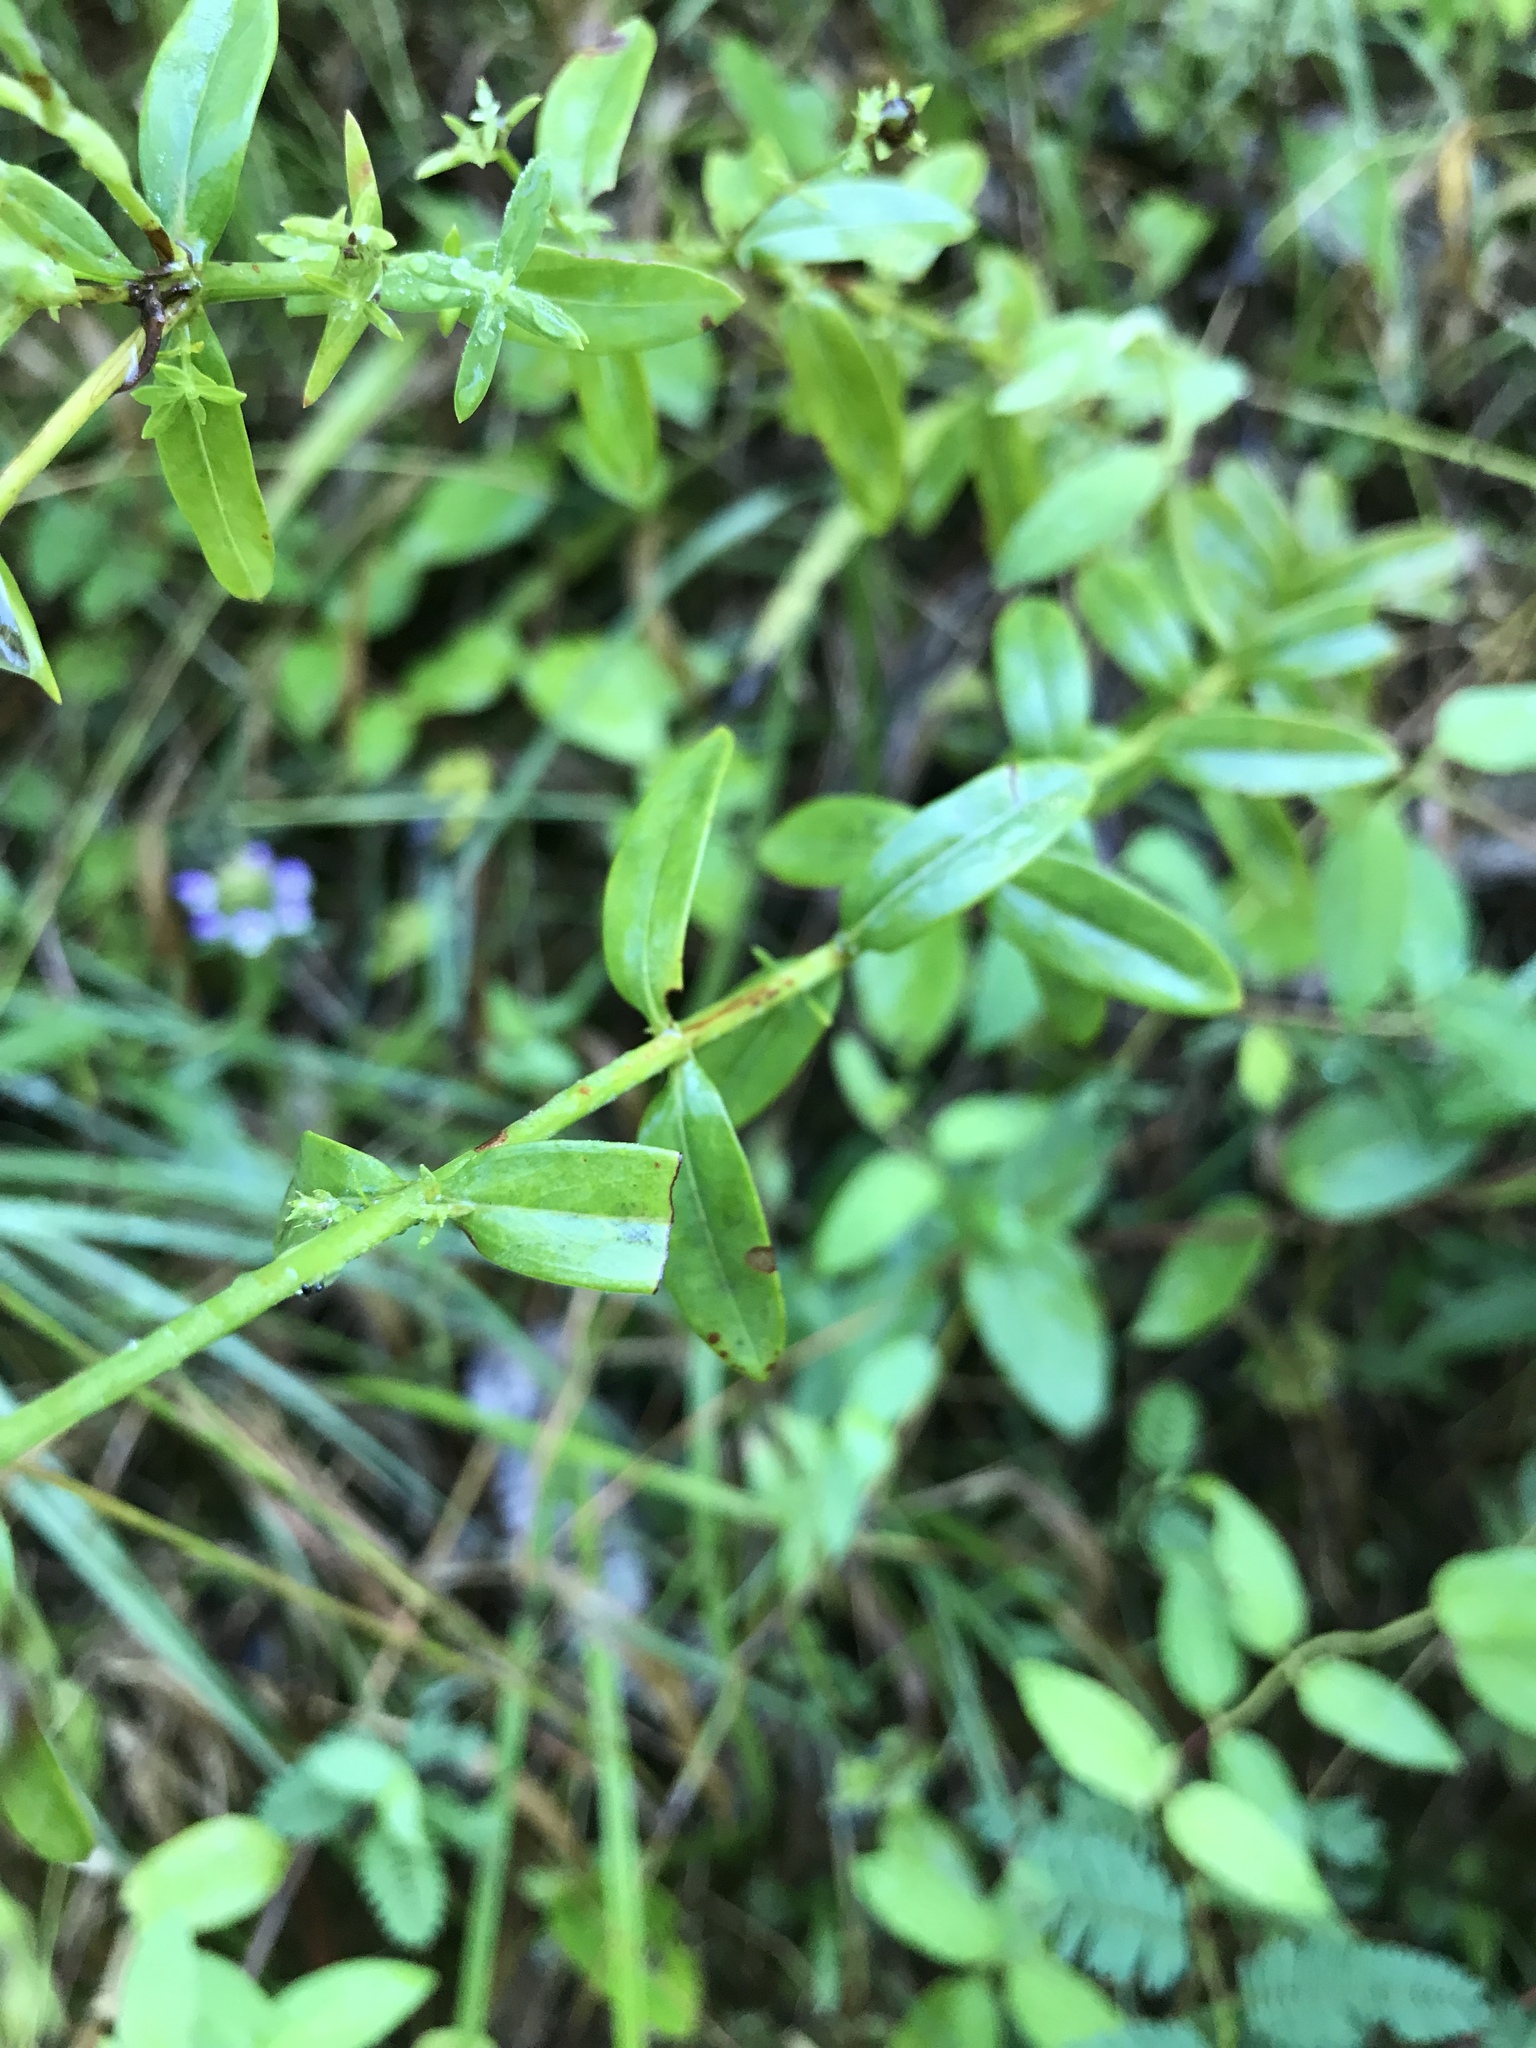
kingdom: Plantae
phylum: Tracheophyta
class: Magnoliopsida
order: Malpighiales
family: Hypericaceae
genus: Hypericum
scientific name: Hypericum virgatum
